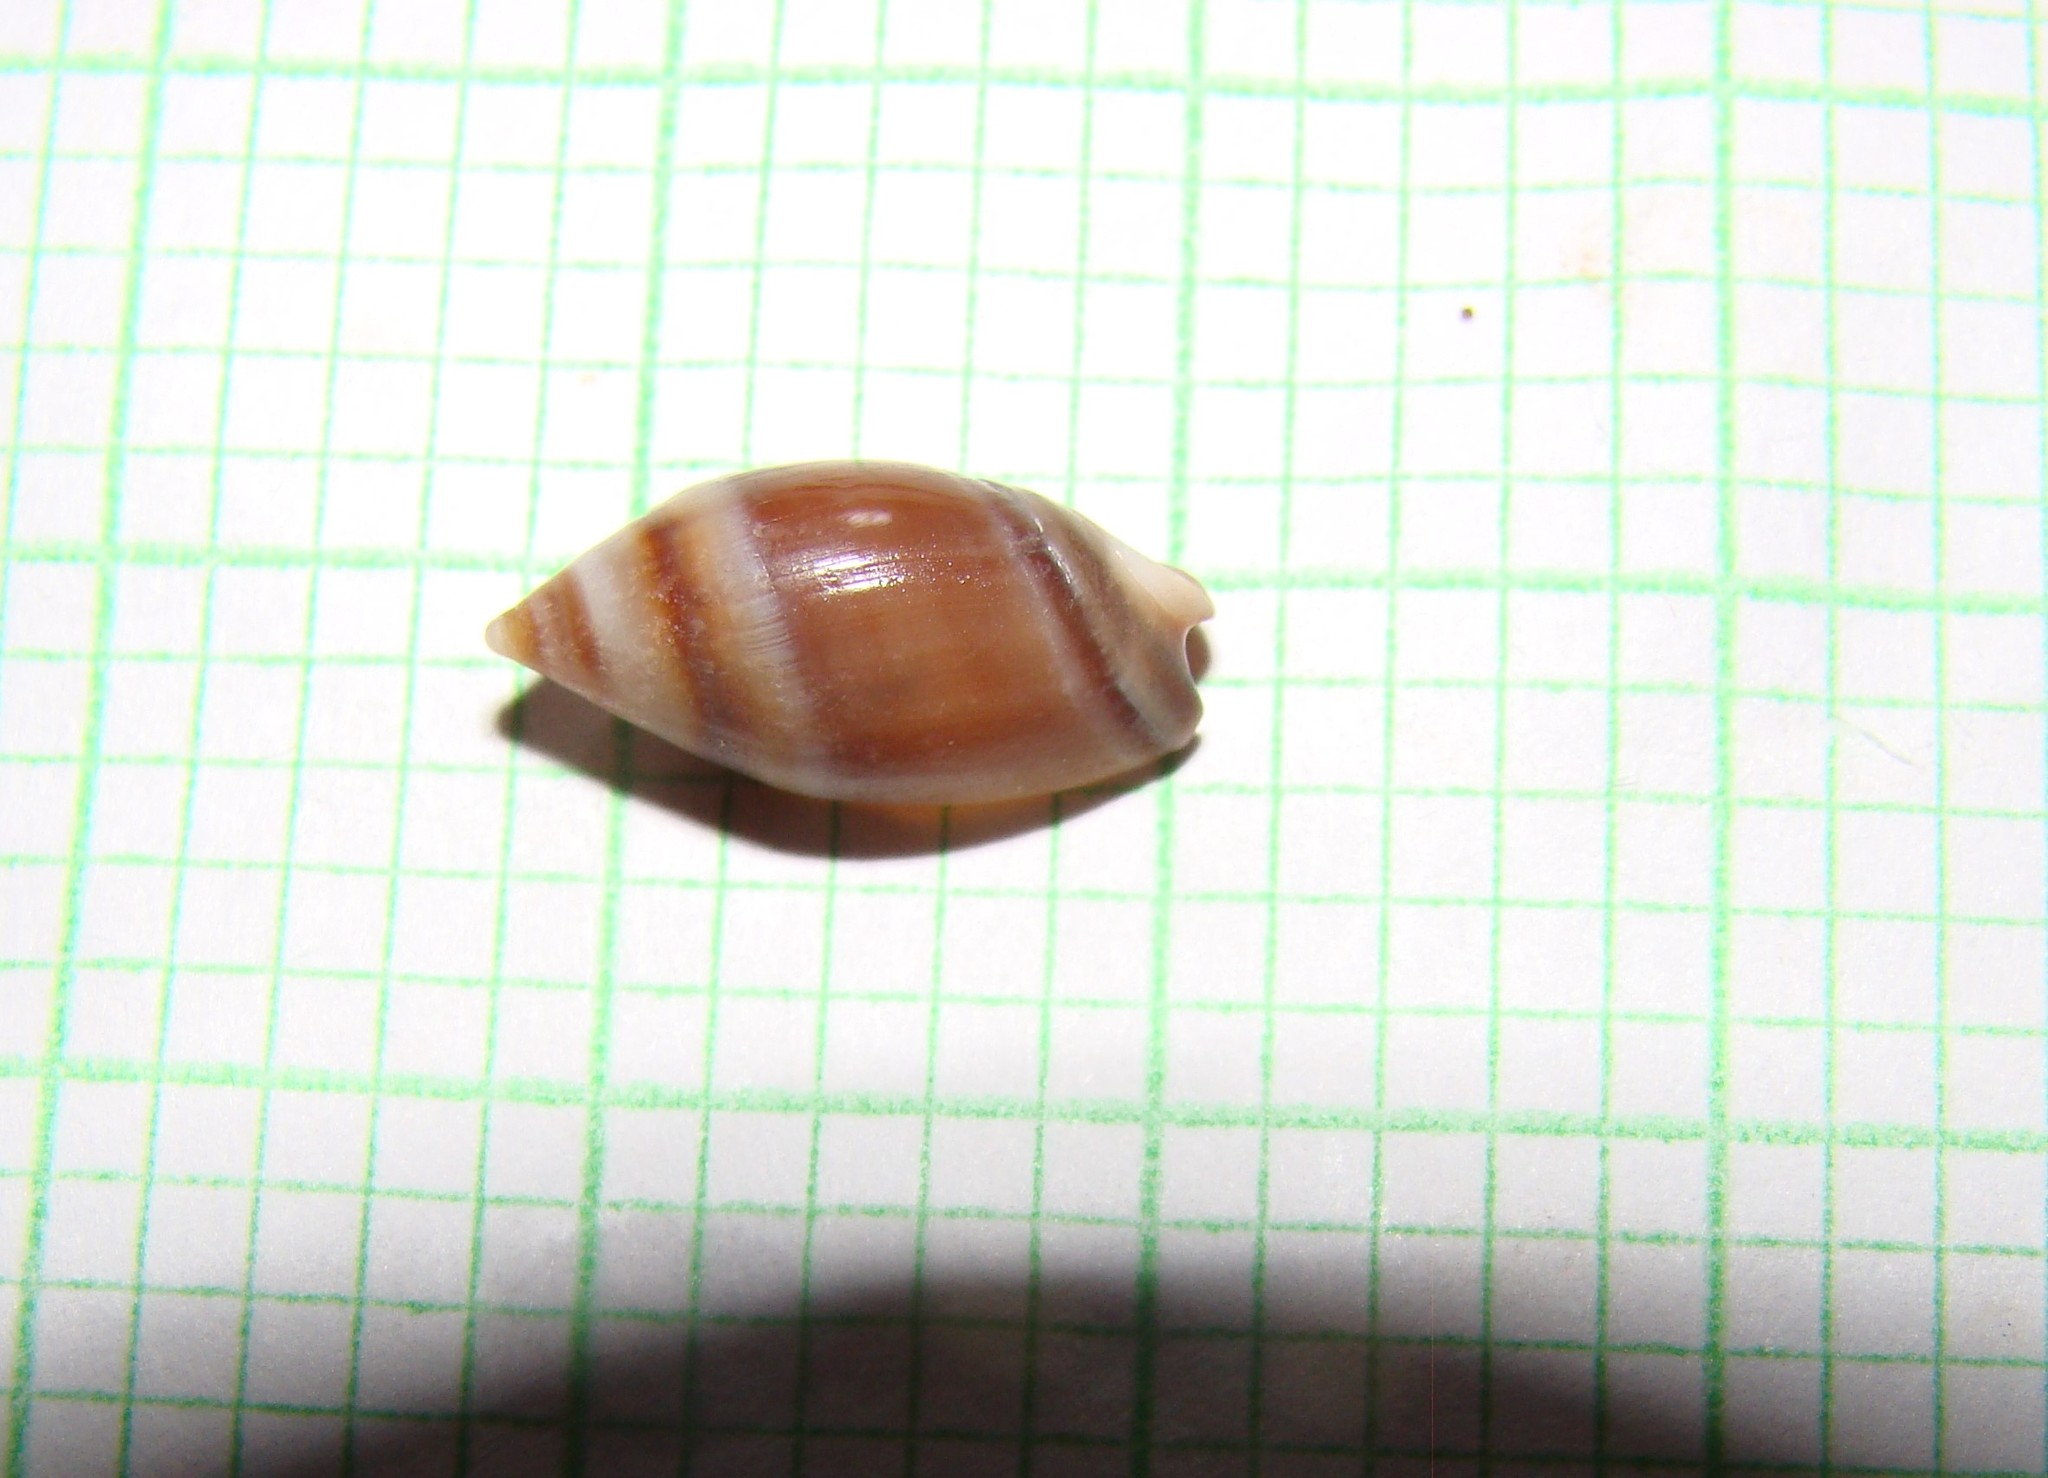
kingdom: Animalia
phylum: Mollusca
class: Gastropoda
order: Neogastropoda
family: Ancillariidae
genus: Amalda
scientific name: Amalda australis
